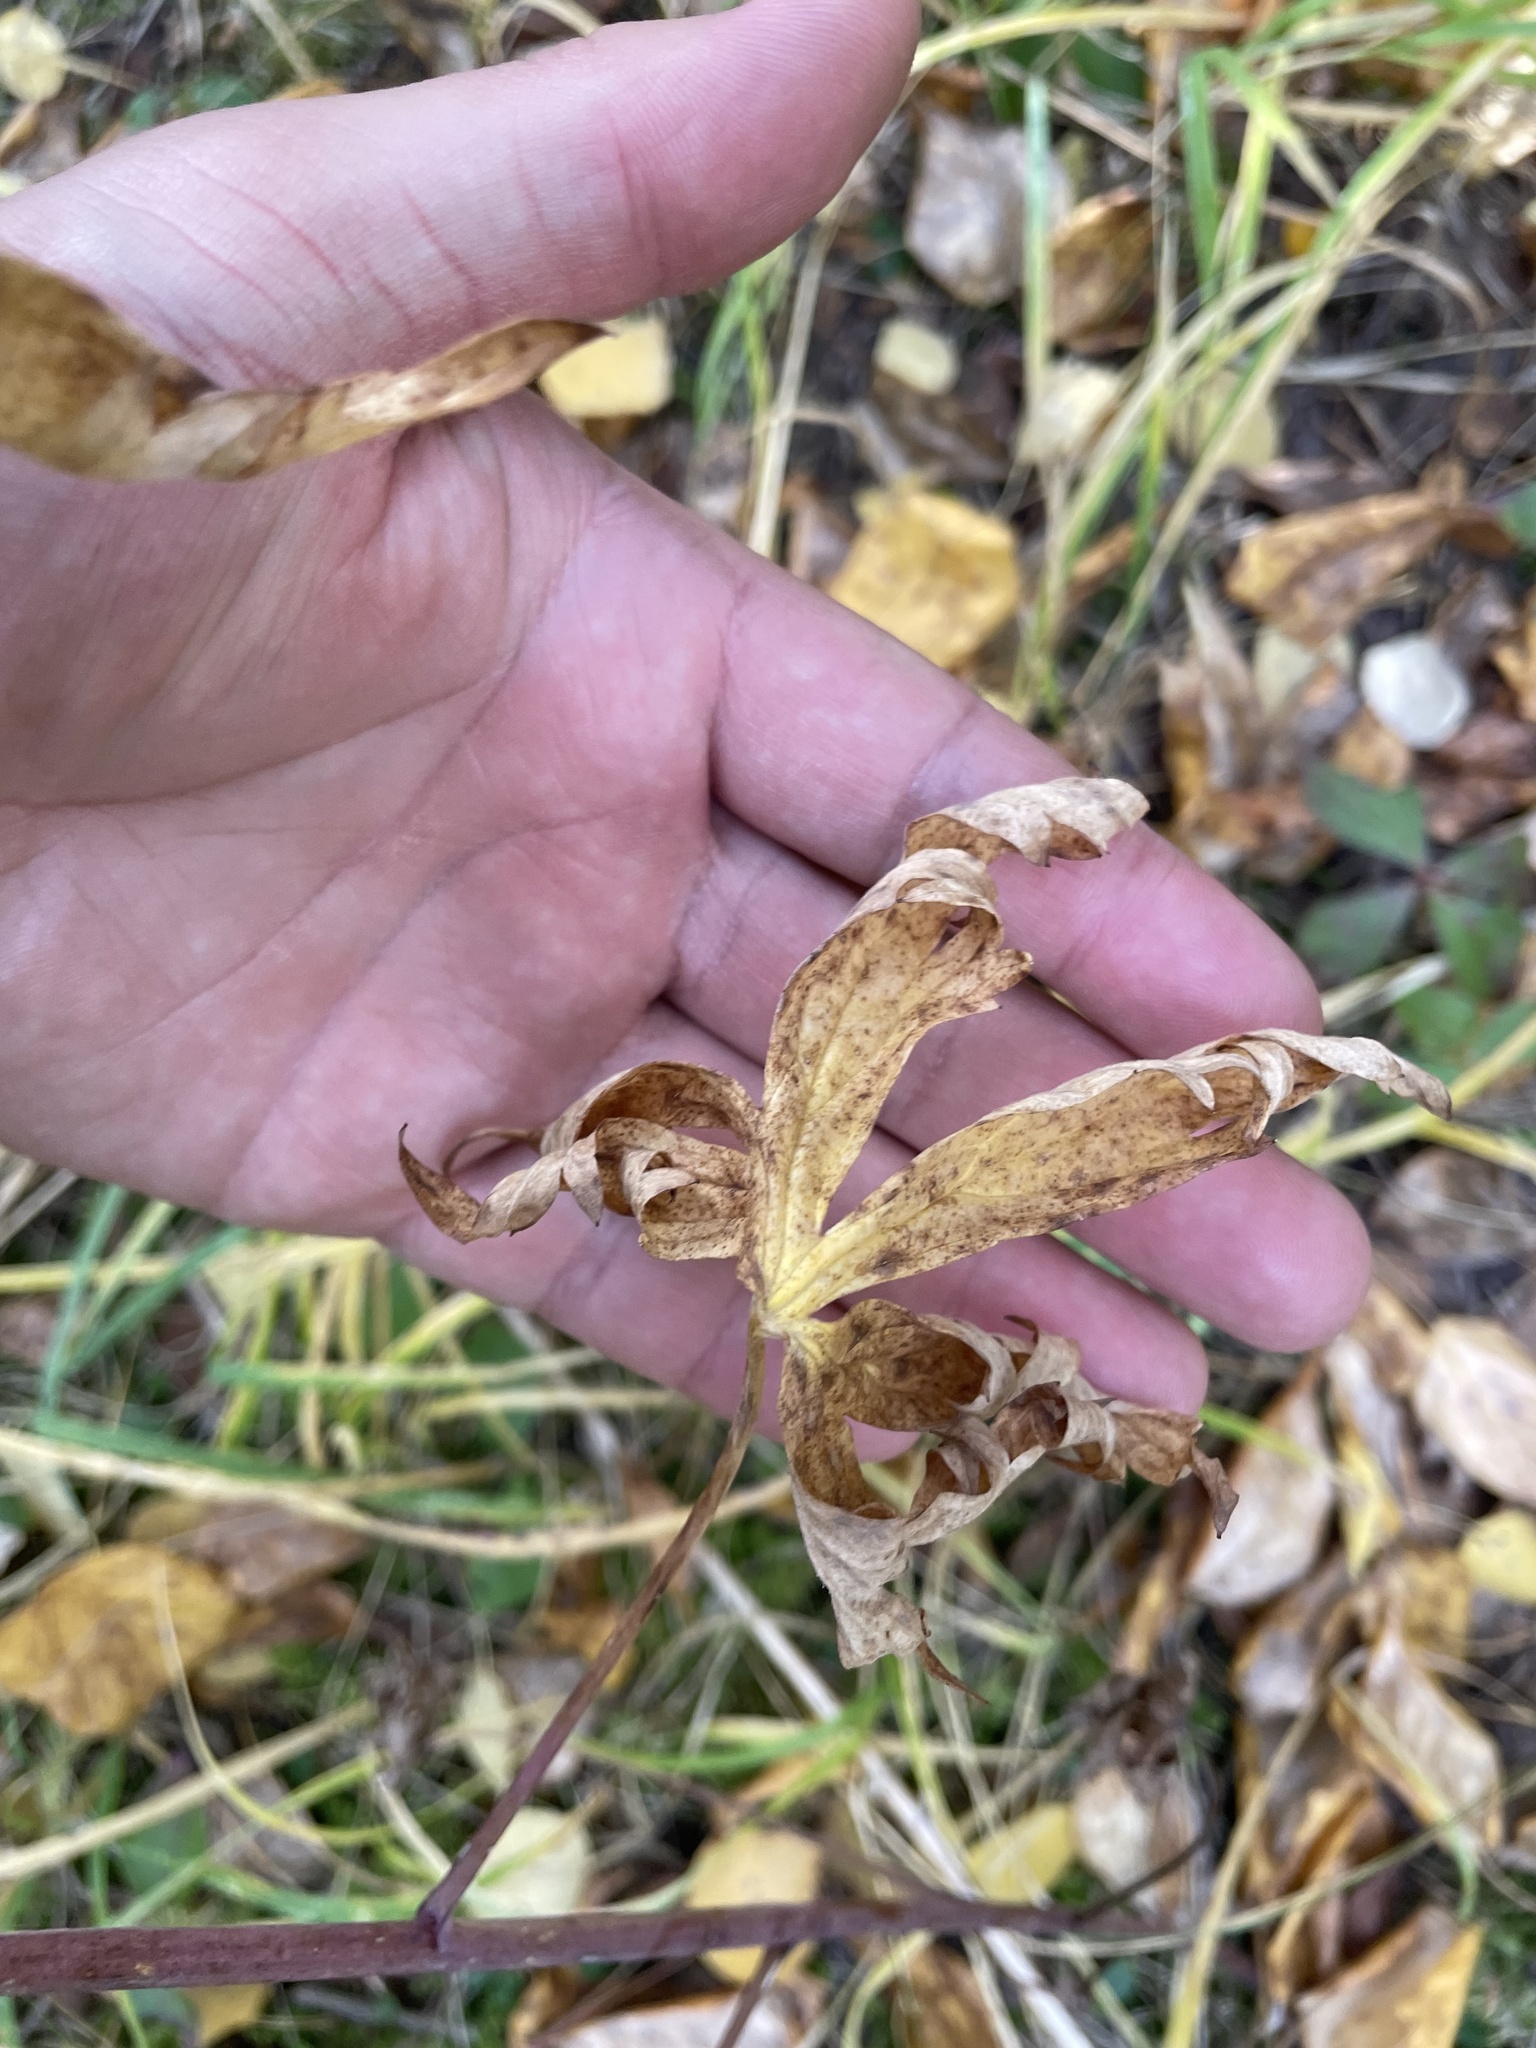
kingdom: Plantae
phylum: Tracheophyta
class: Magnoliopsida
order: Ranunculales
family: Ranunculaceae
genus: Delphinium
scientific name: Delphinium glaucum
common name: Brown's larkspur
